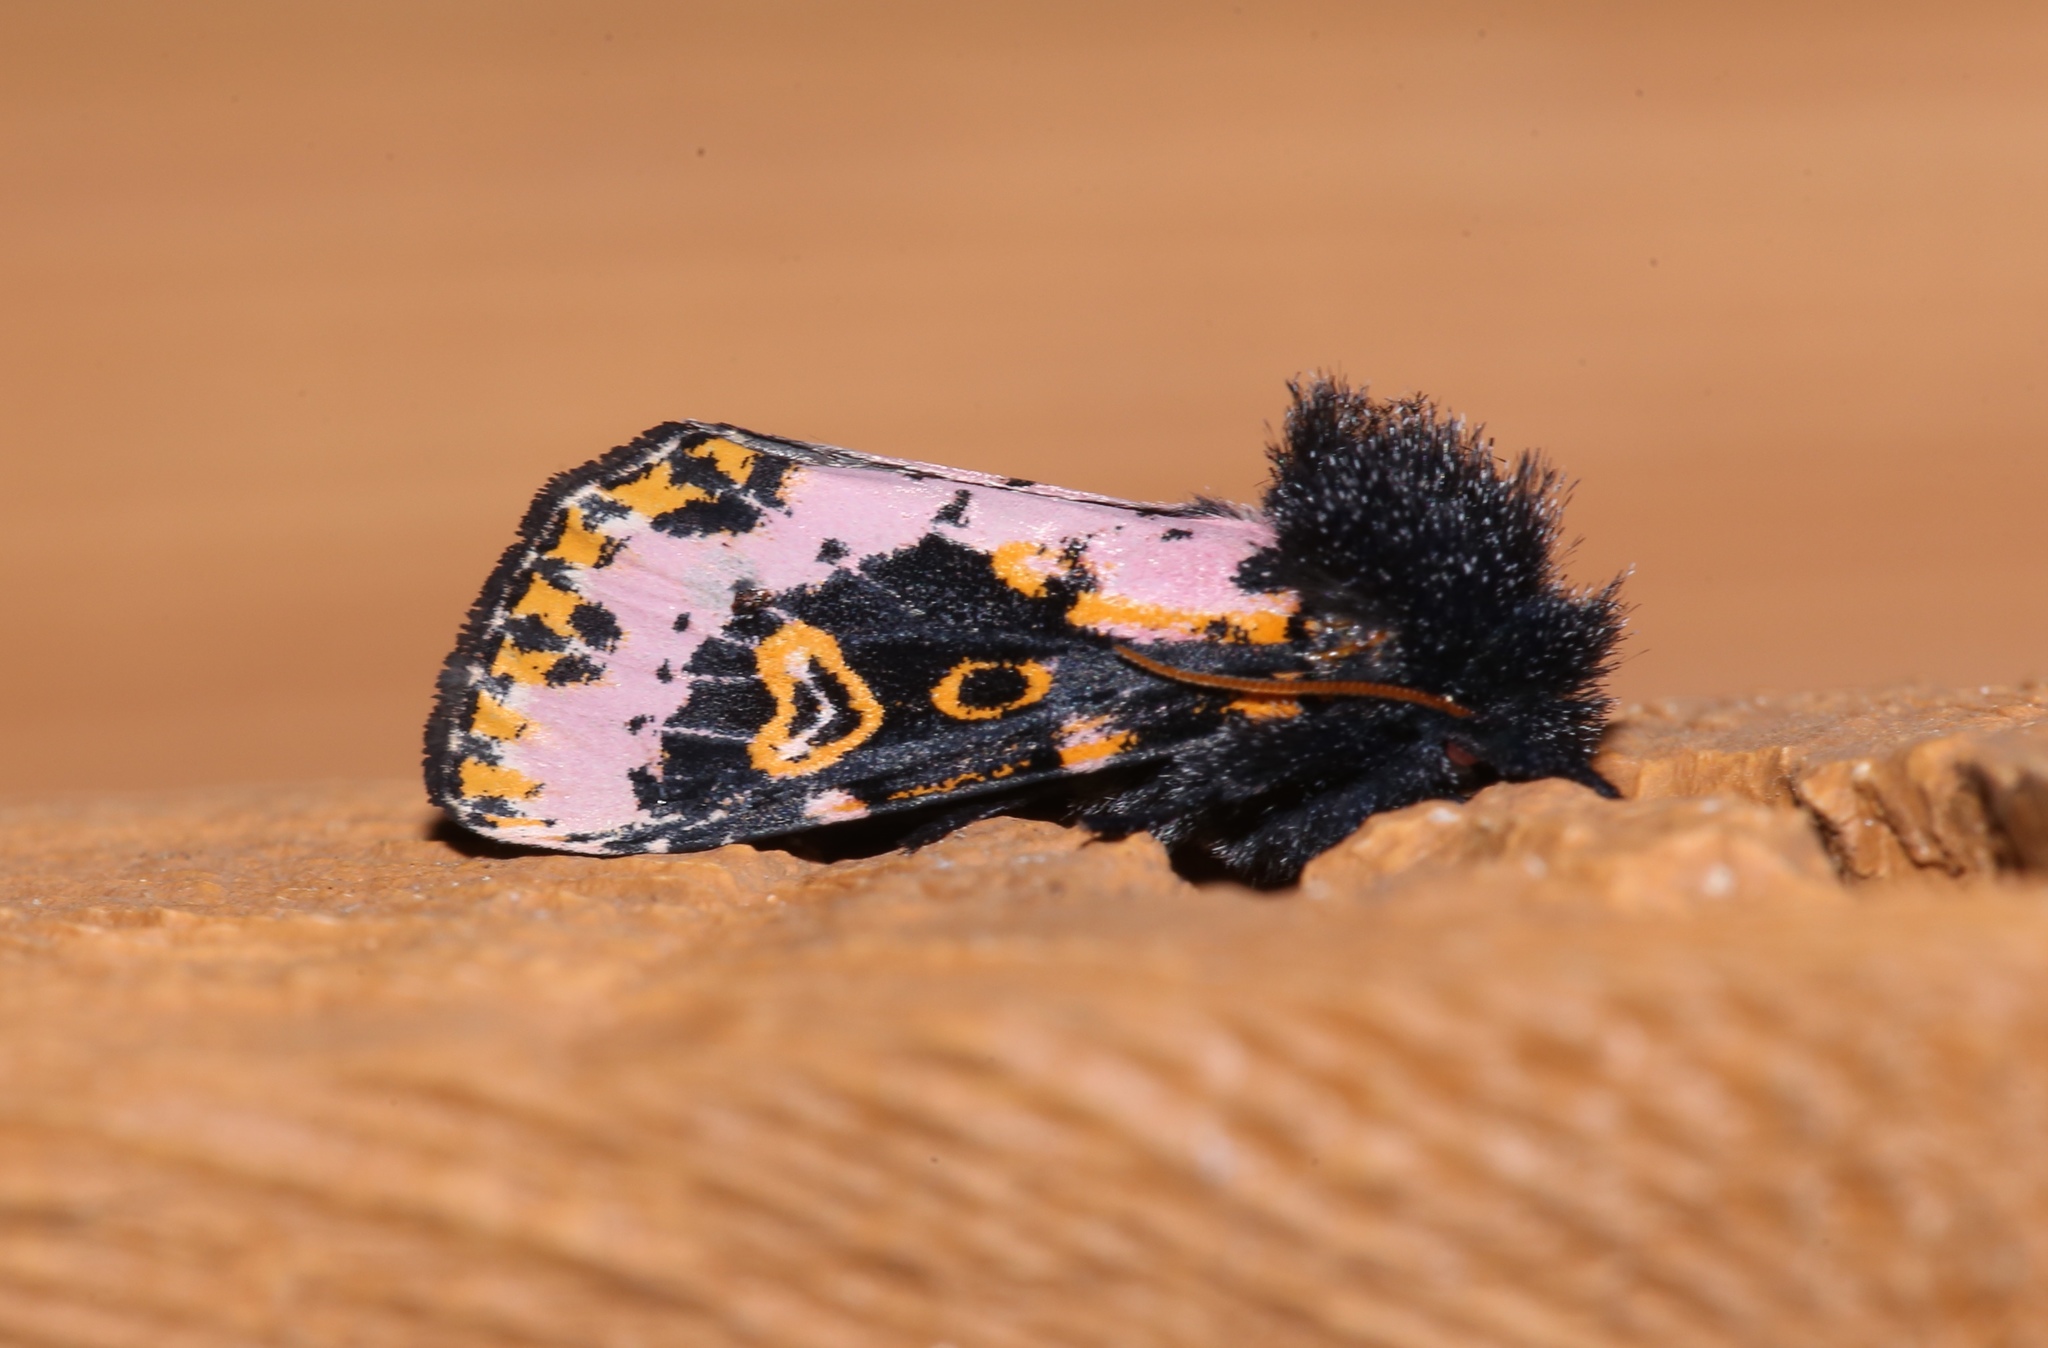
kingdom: Animalia
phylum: Arthropoda
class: Insecta
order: Lepidoptera
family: Noctuidae
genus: Xanthopastis
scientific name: Xanthopastis regnatrix
